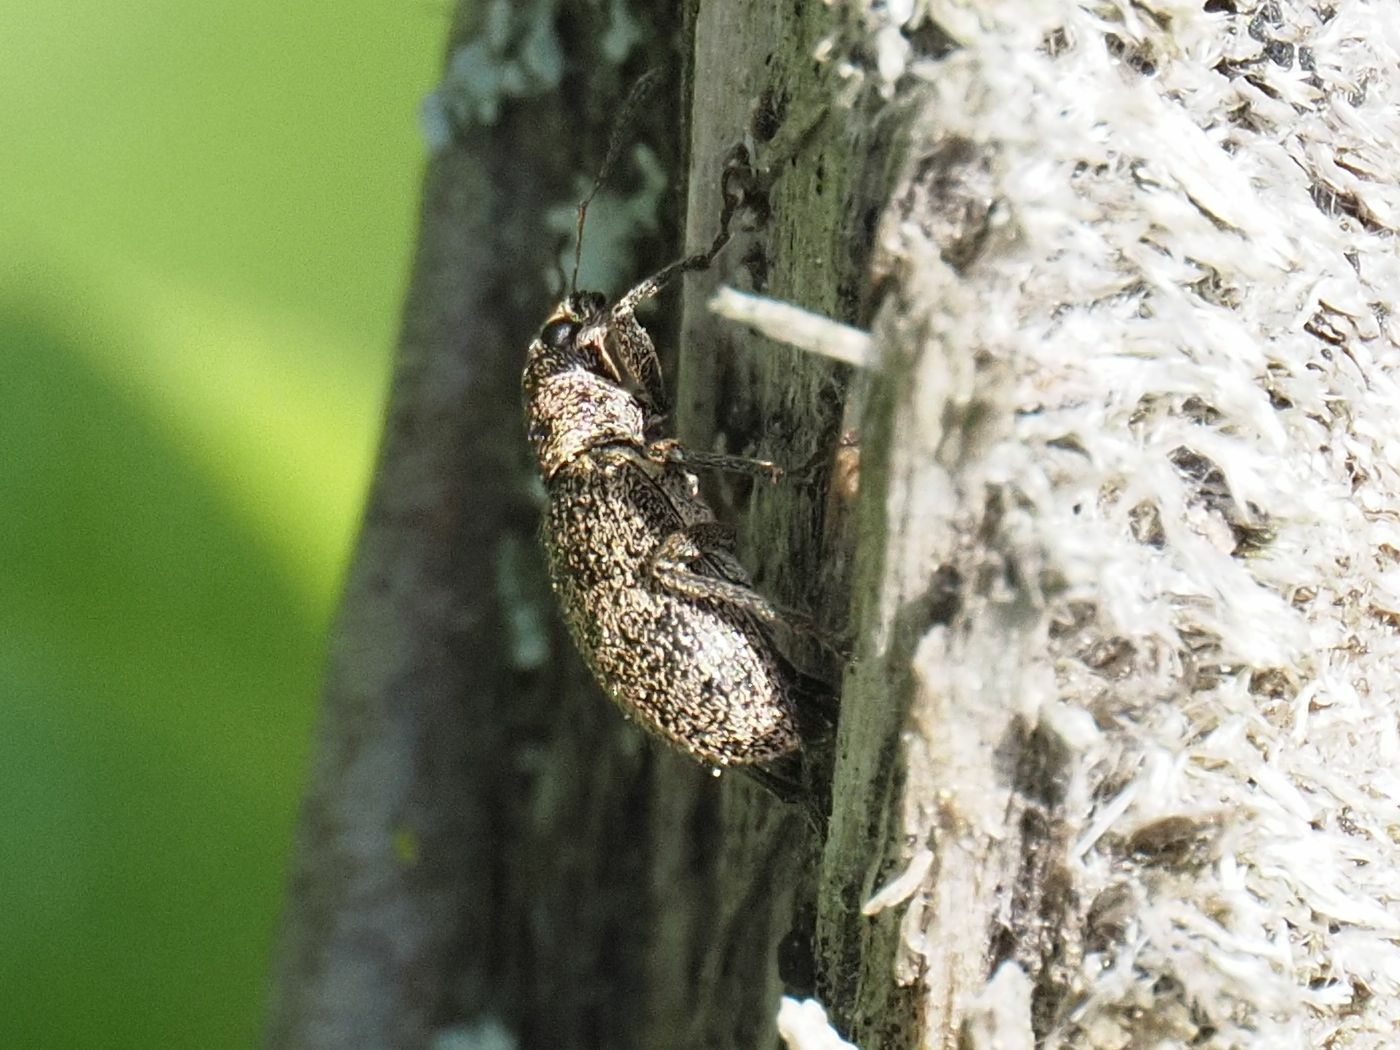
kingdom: Animalia
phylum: Arthropoda
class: Insecta
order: Coleoptera
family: Curculionidae
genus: Polydrusus
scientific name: Polydrusus inustus
